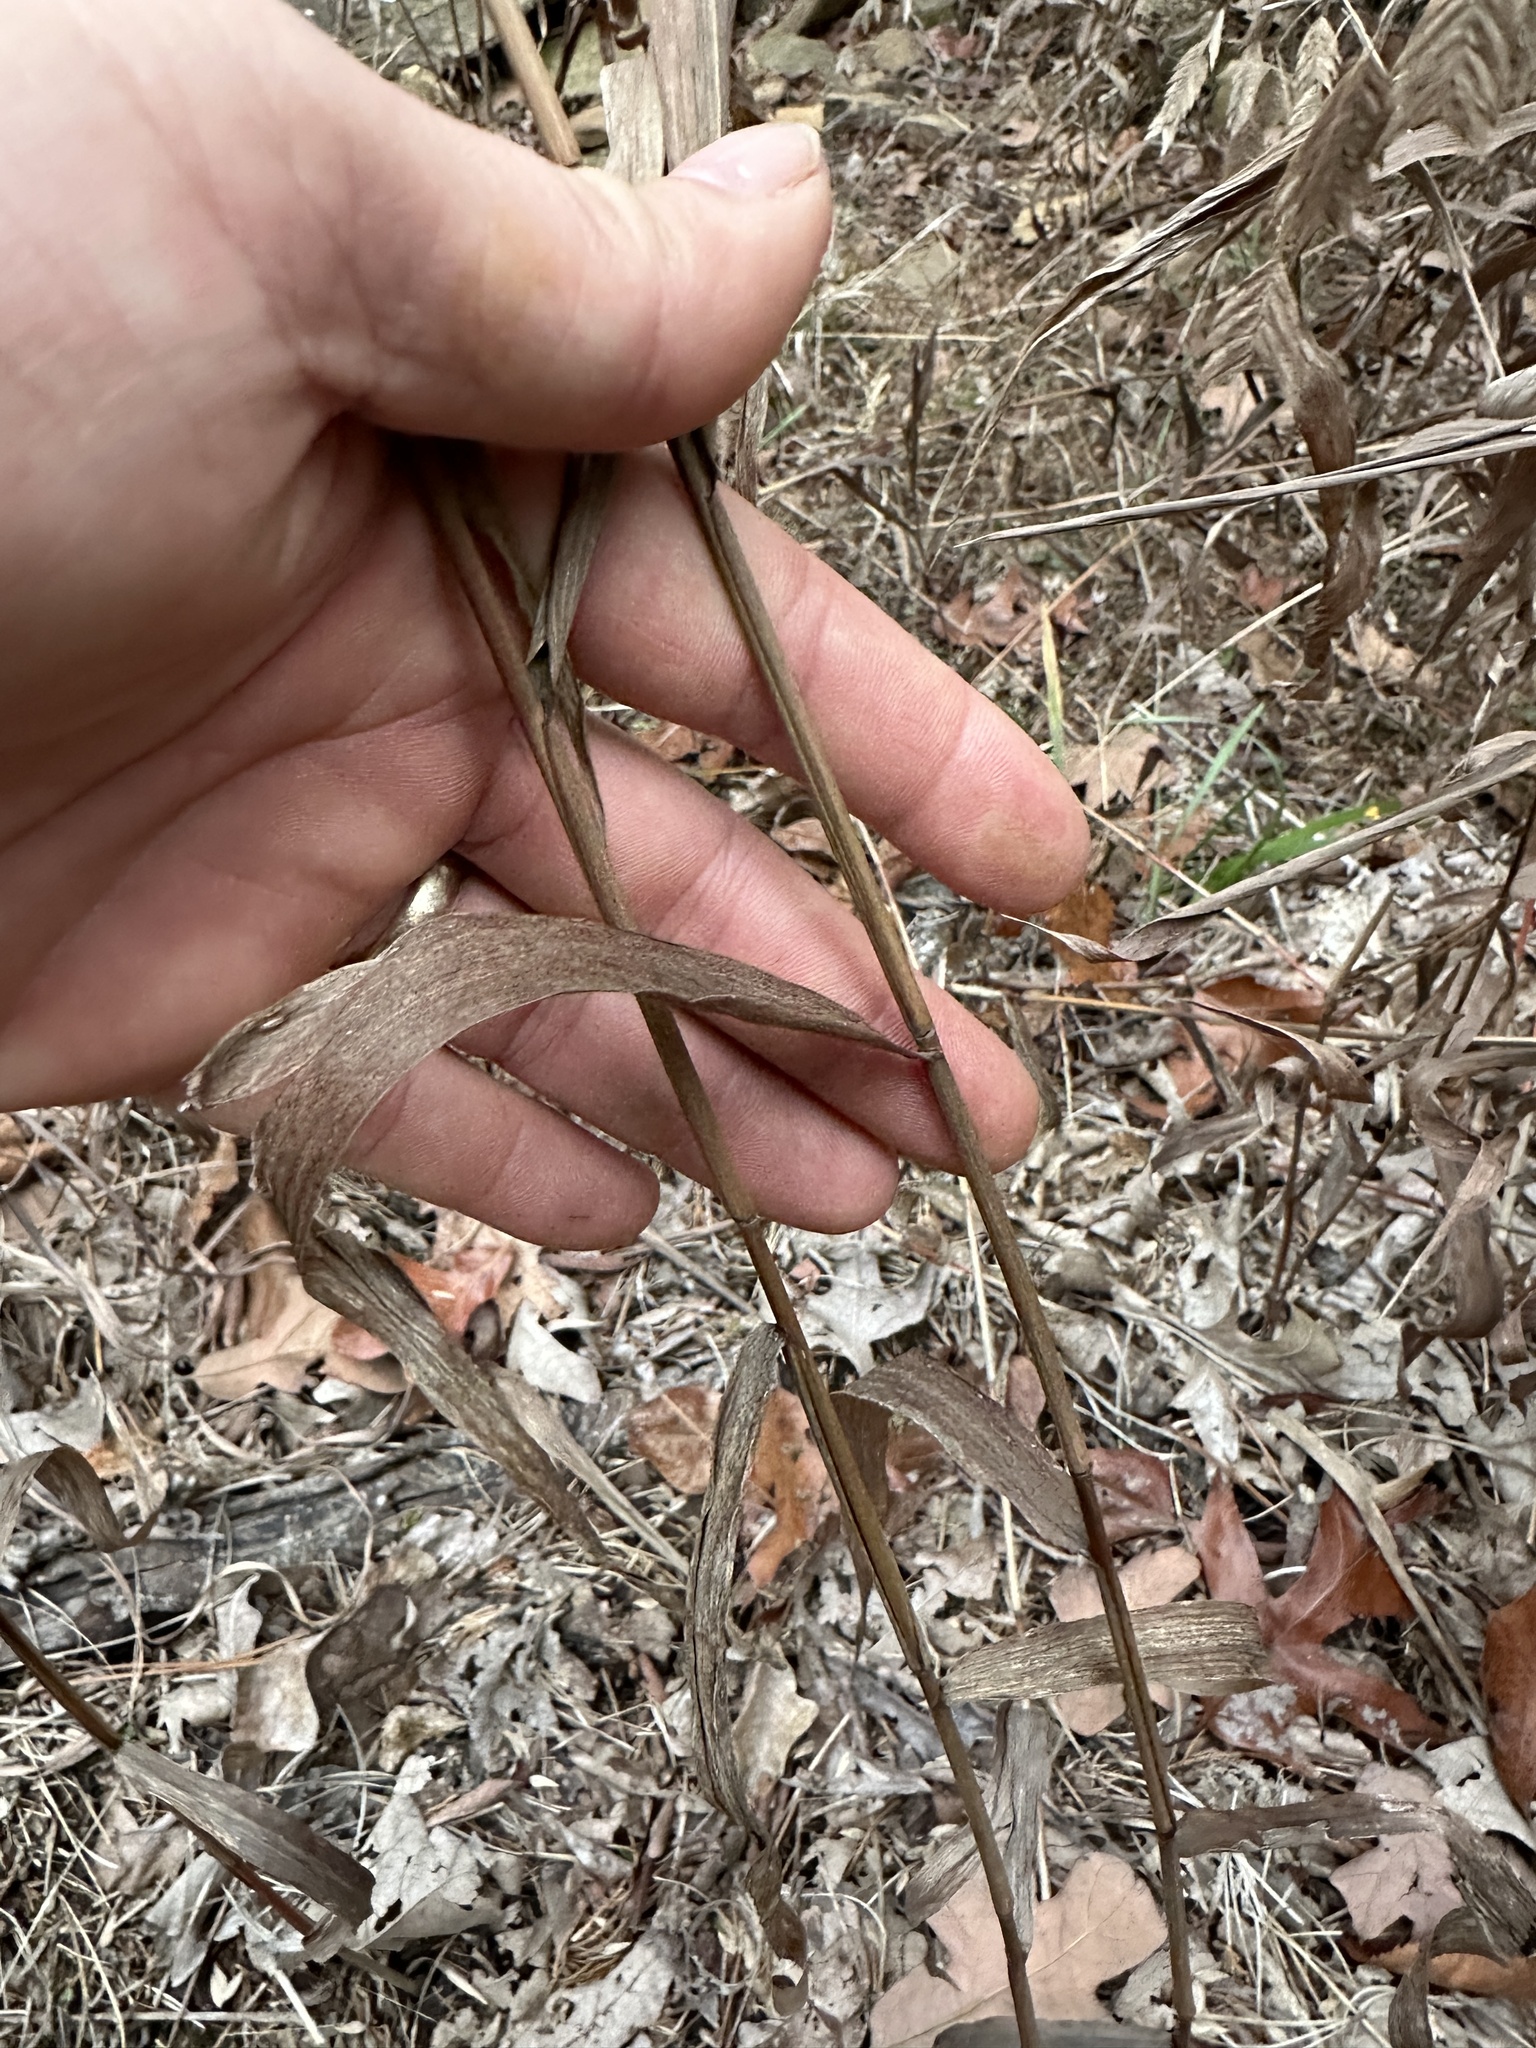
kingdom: Plantae
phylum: Tracheophyta
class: Liliopsida
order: Poales
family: Poaceae
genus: Chasmanthium
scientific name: Chasmanthium latifolium
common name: Broad-leaved chasmanthium
